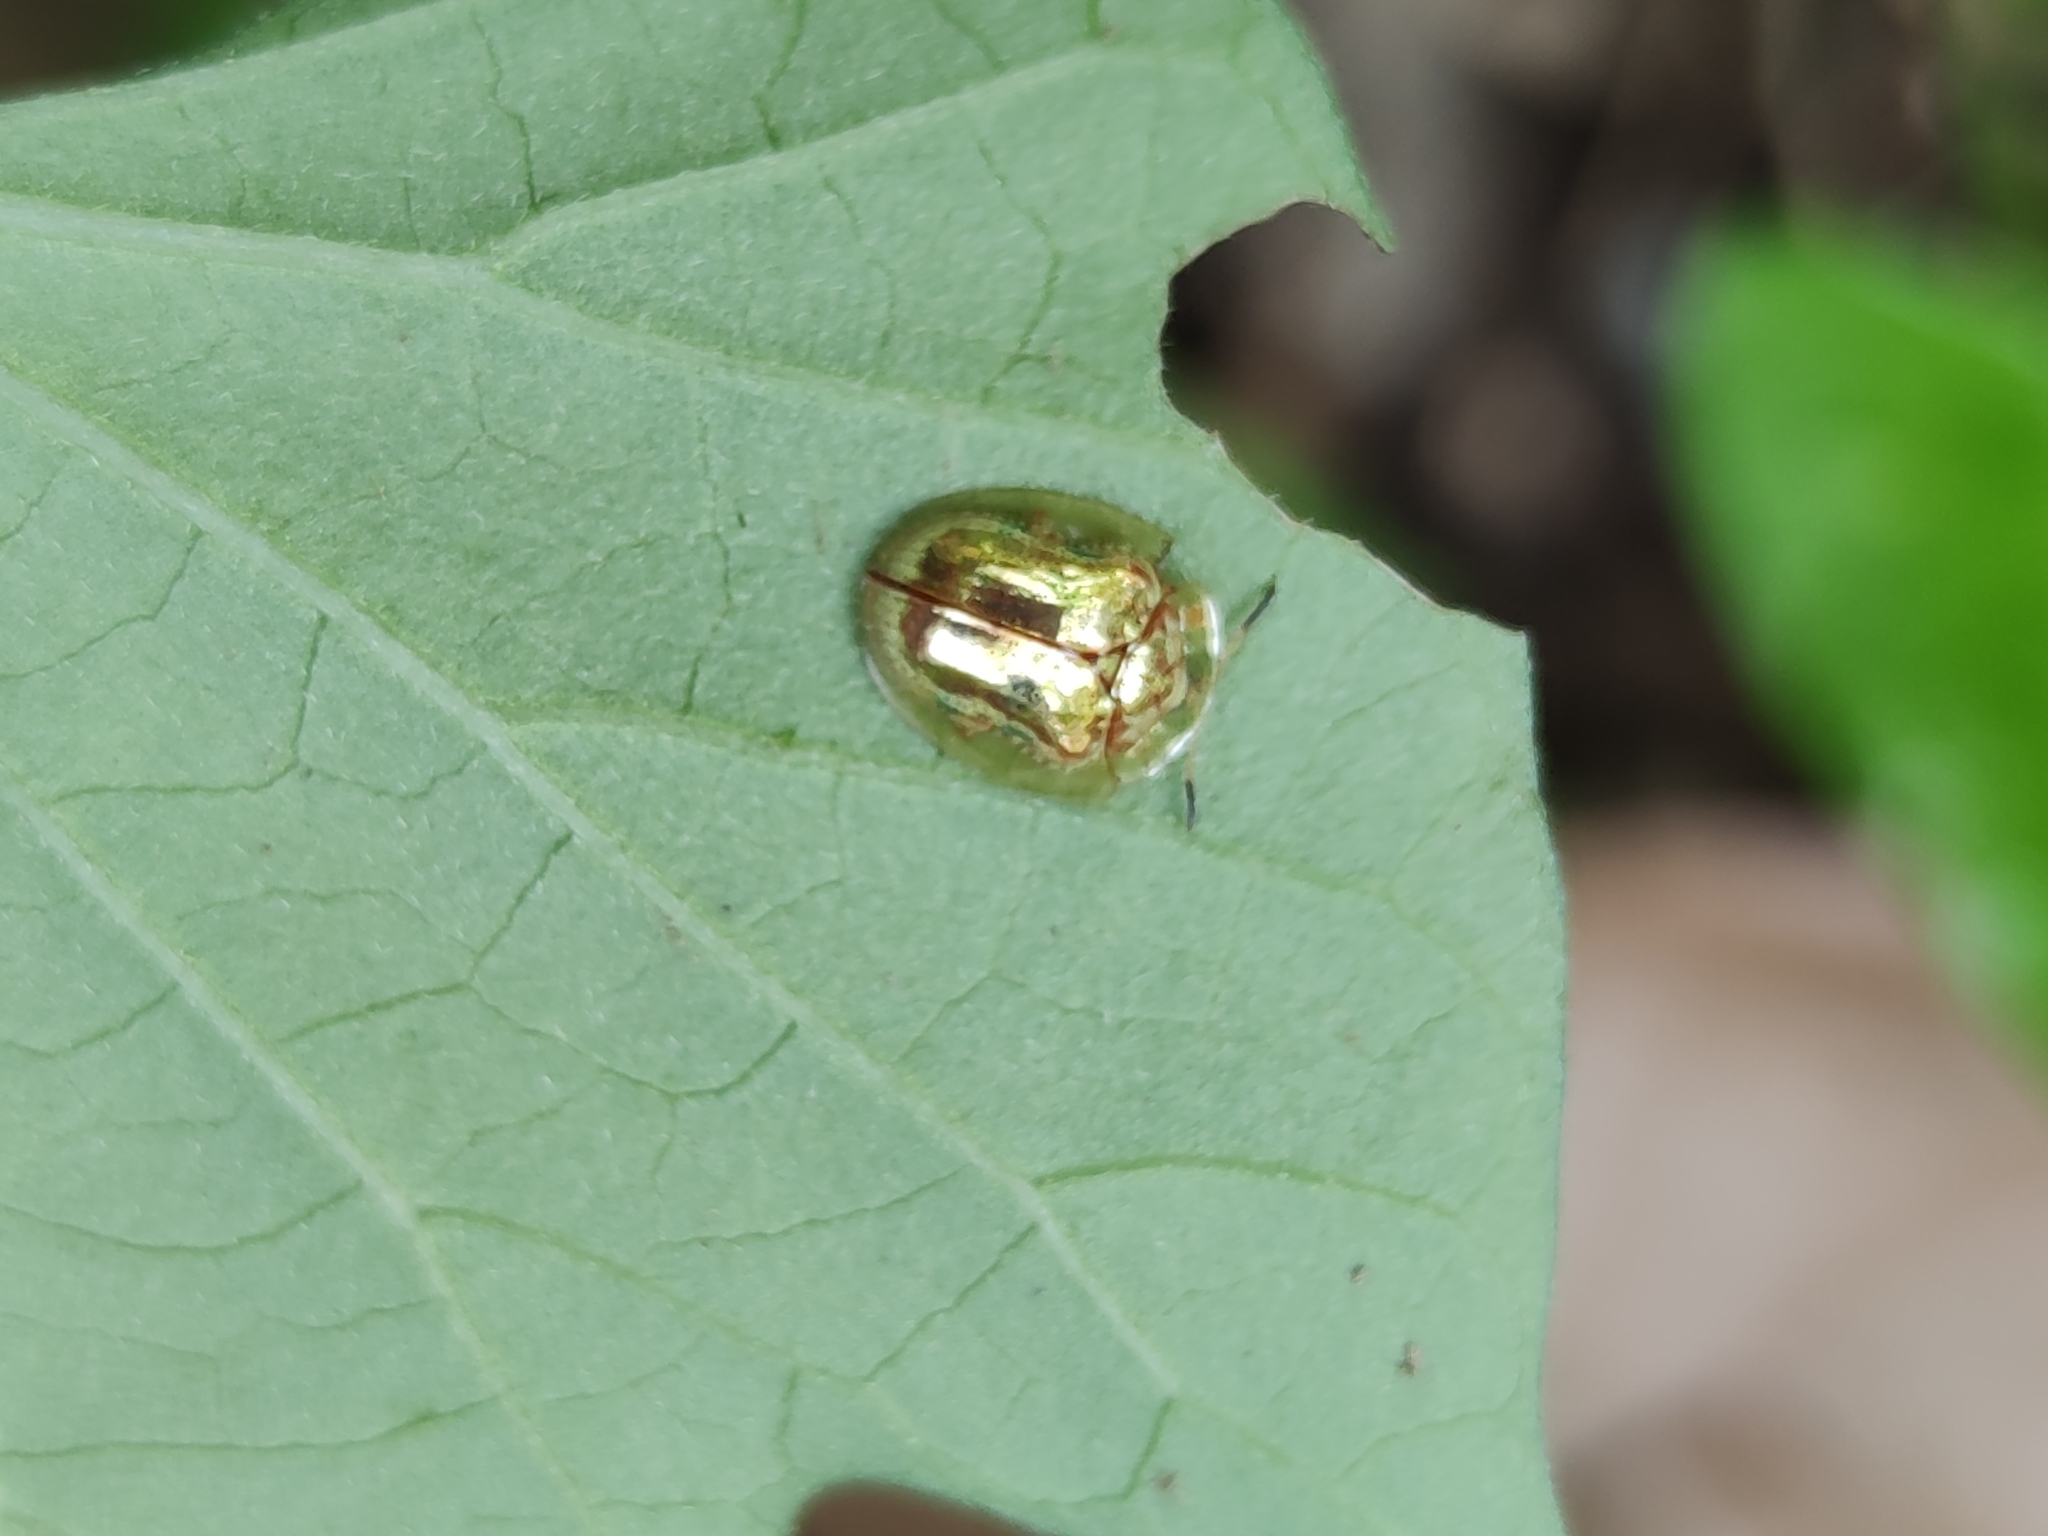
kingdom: Animalia
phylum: Arthropoda
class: Insecta
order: Coleoptera
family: Chrysomelidae
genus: Charidotella
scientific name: Charidotella sexpunctata
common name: Golden tortoise beetle
